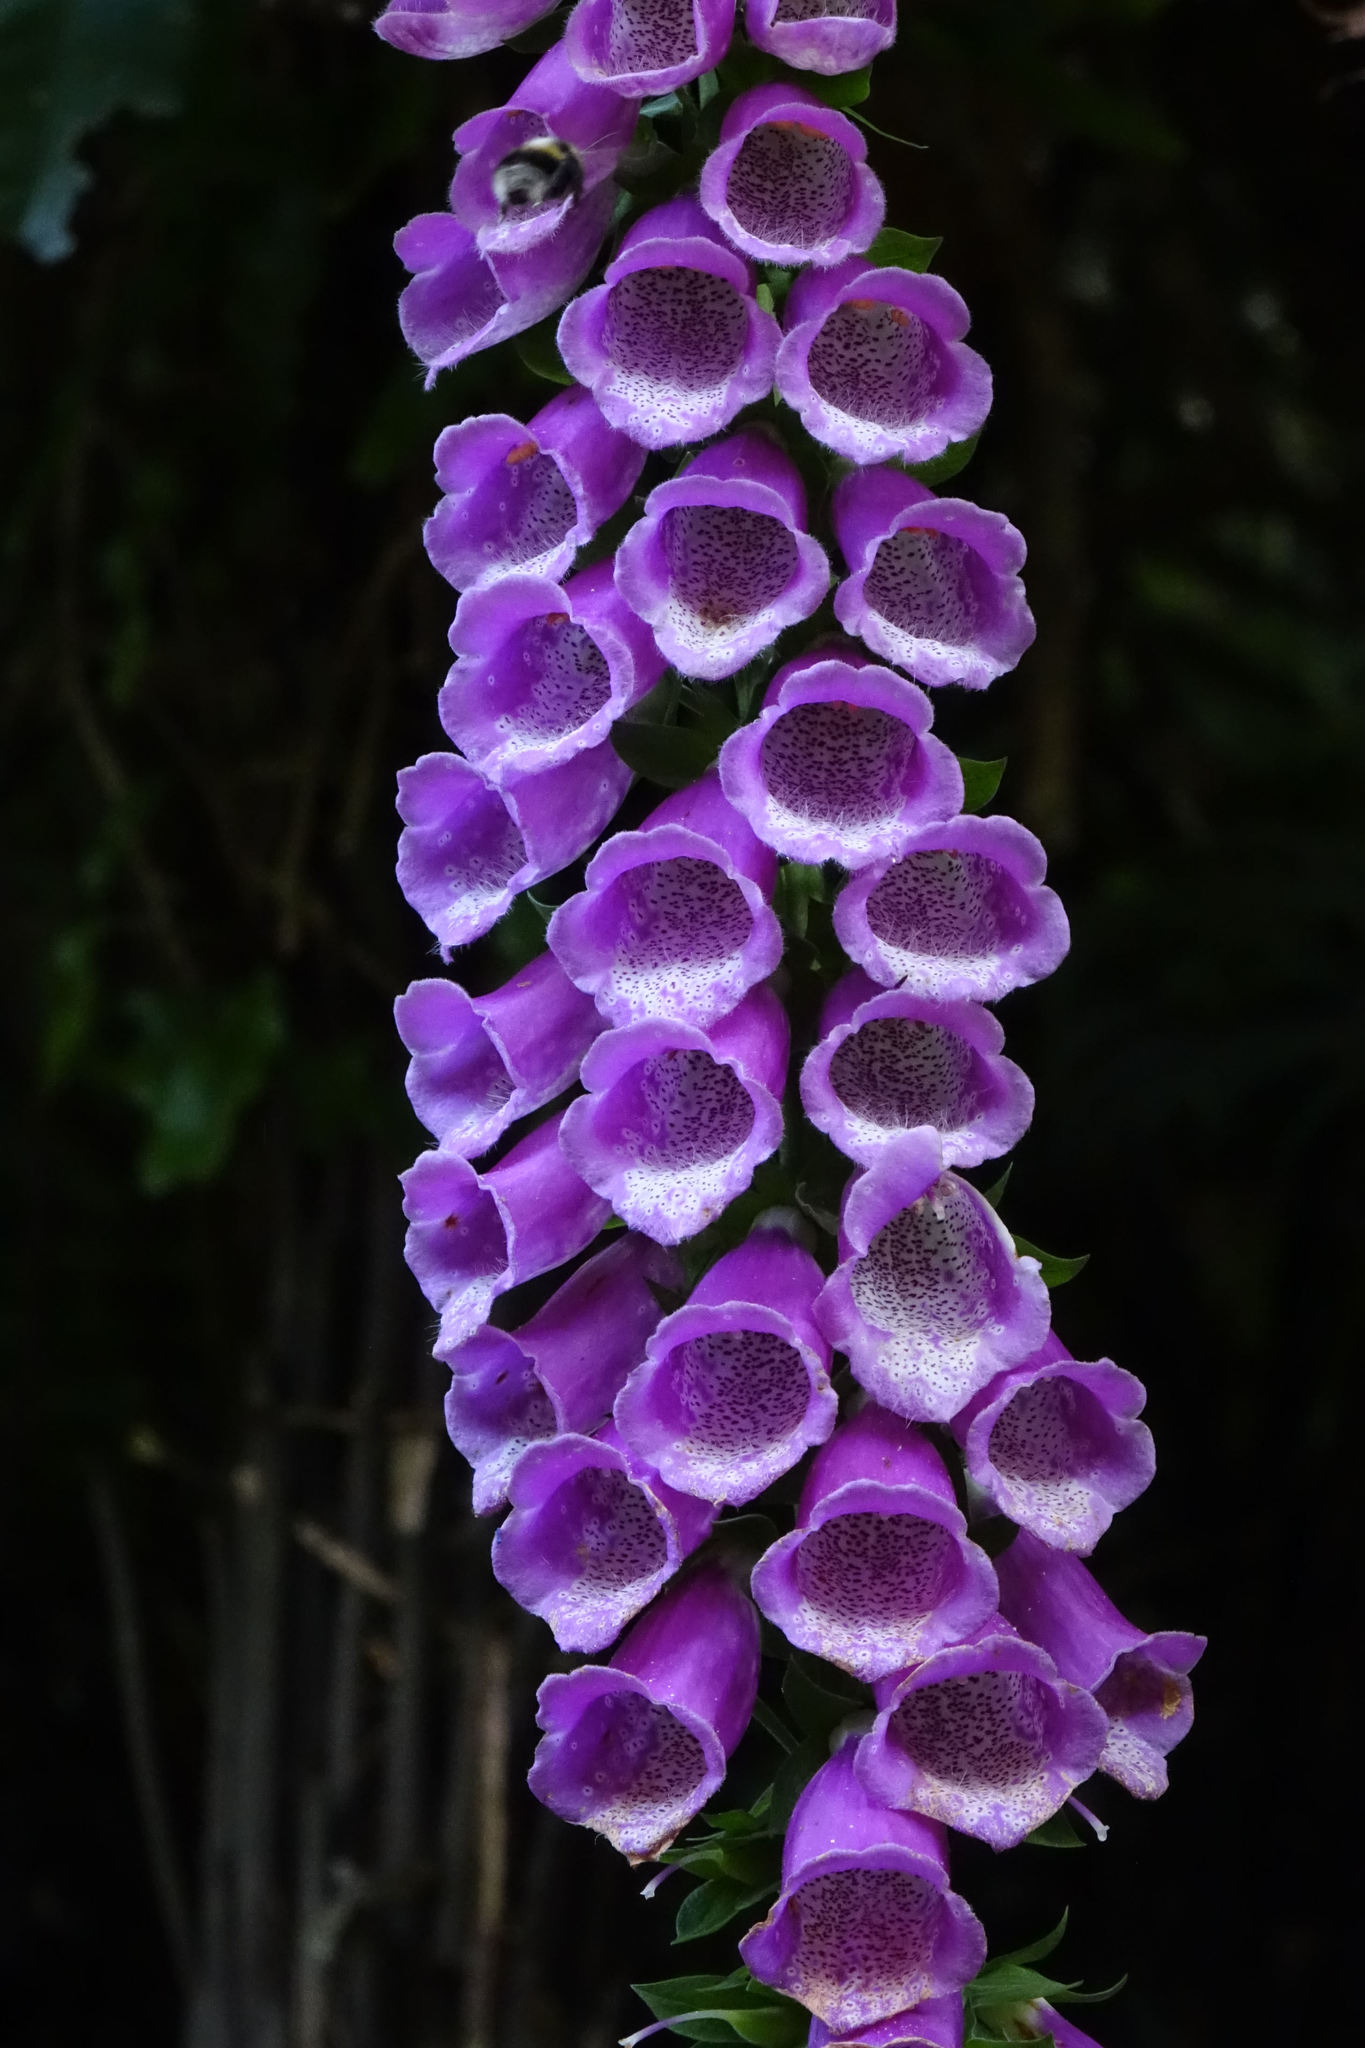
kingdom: Plantae
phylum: Tracheophyta
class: Magnoliopsida
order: Lamiales
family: Plantaginaceae
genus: Digitalis
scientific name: Digitalis purpurea
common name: Foxglove
